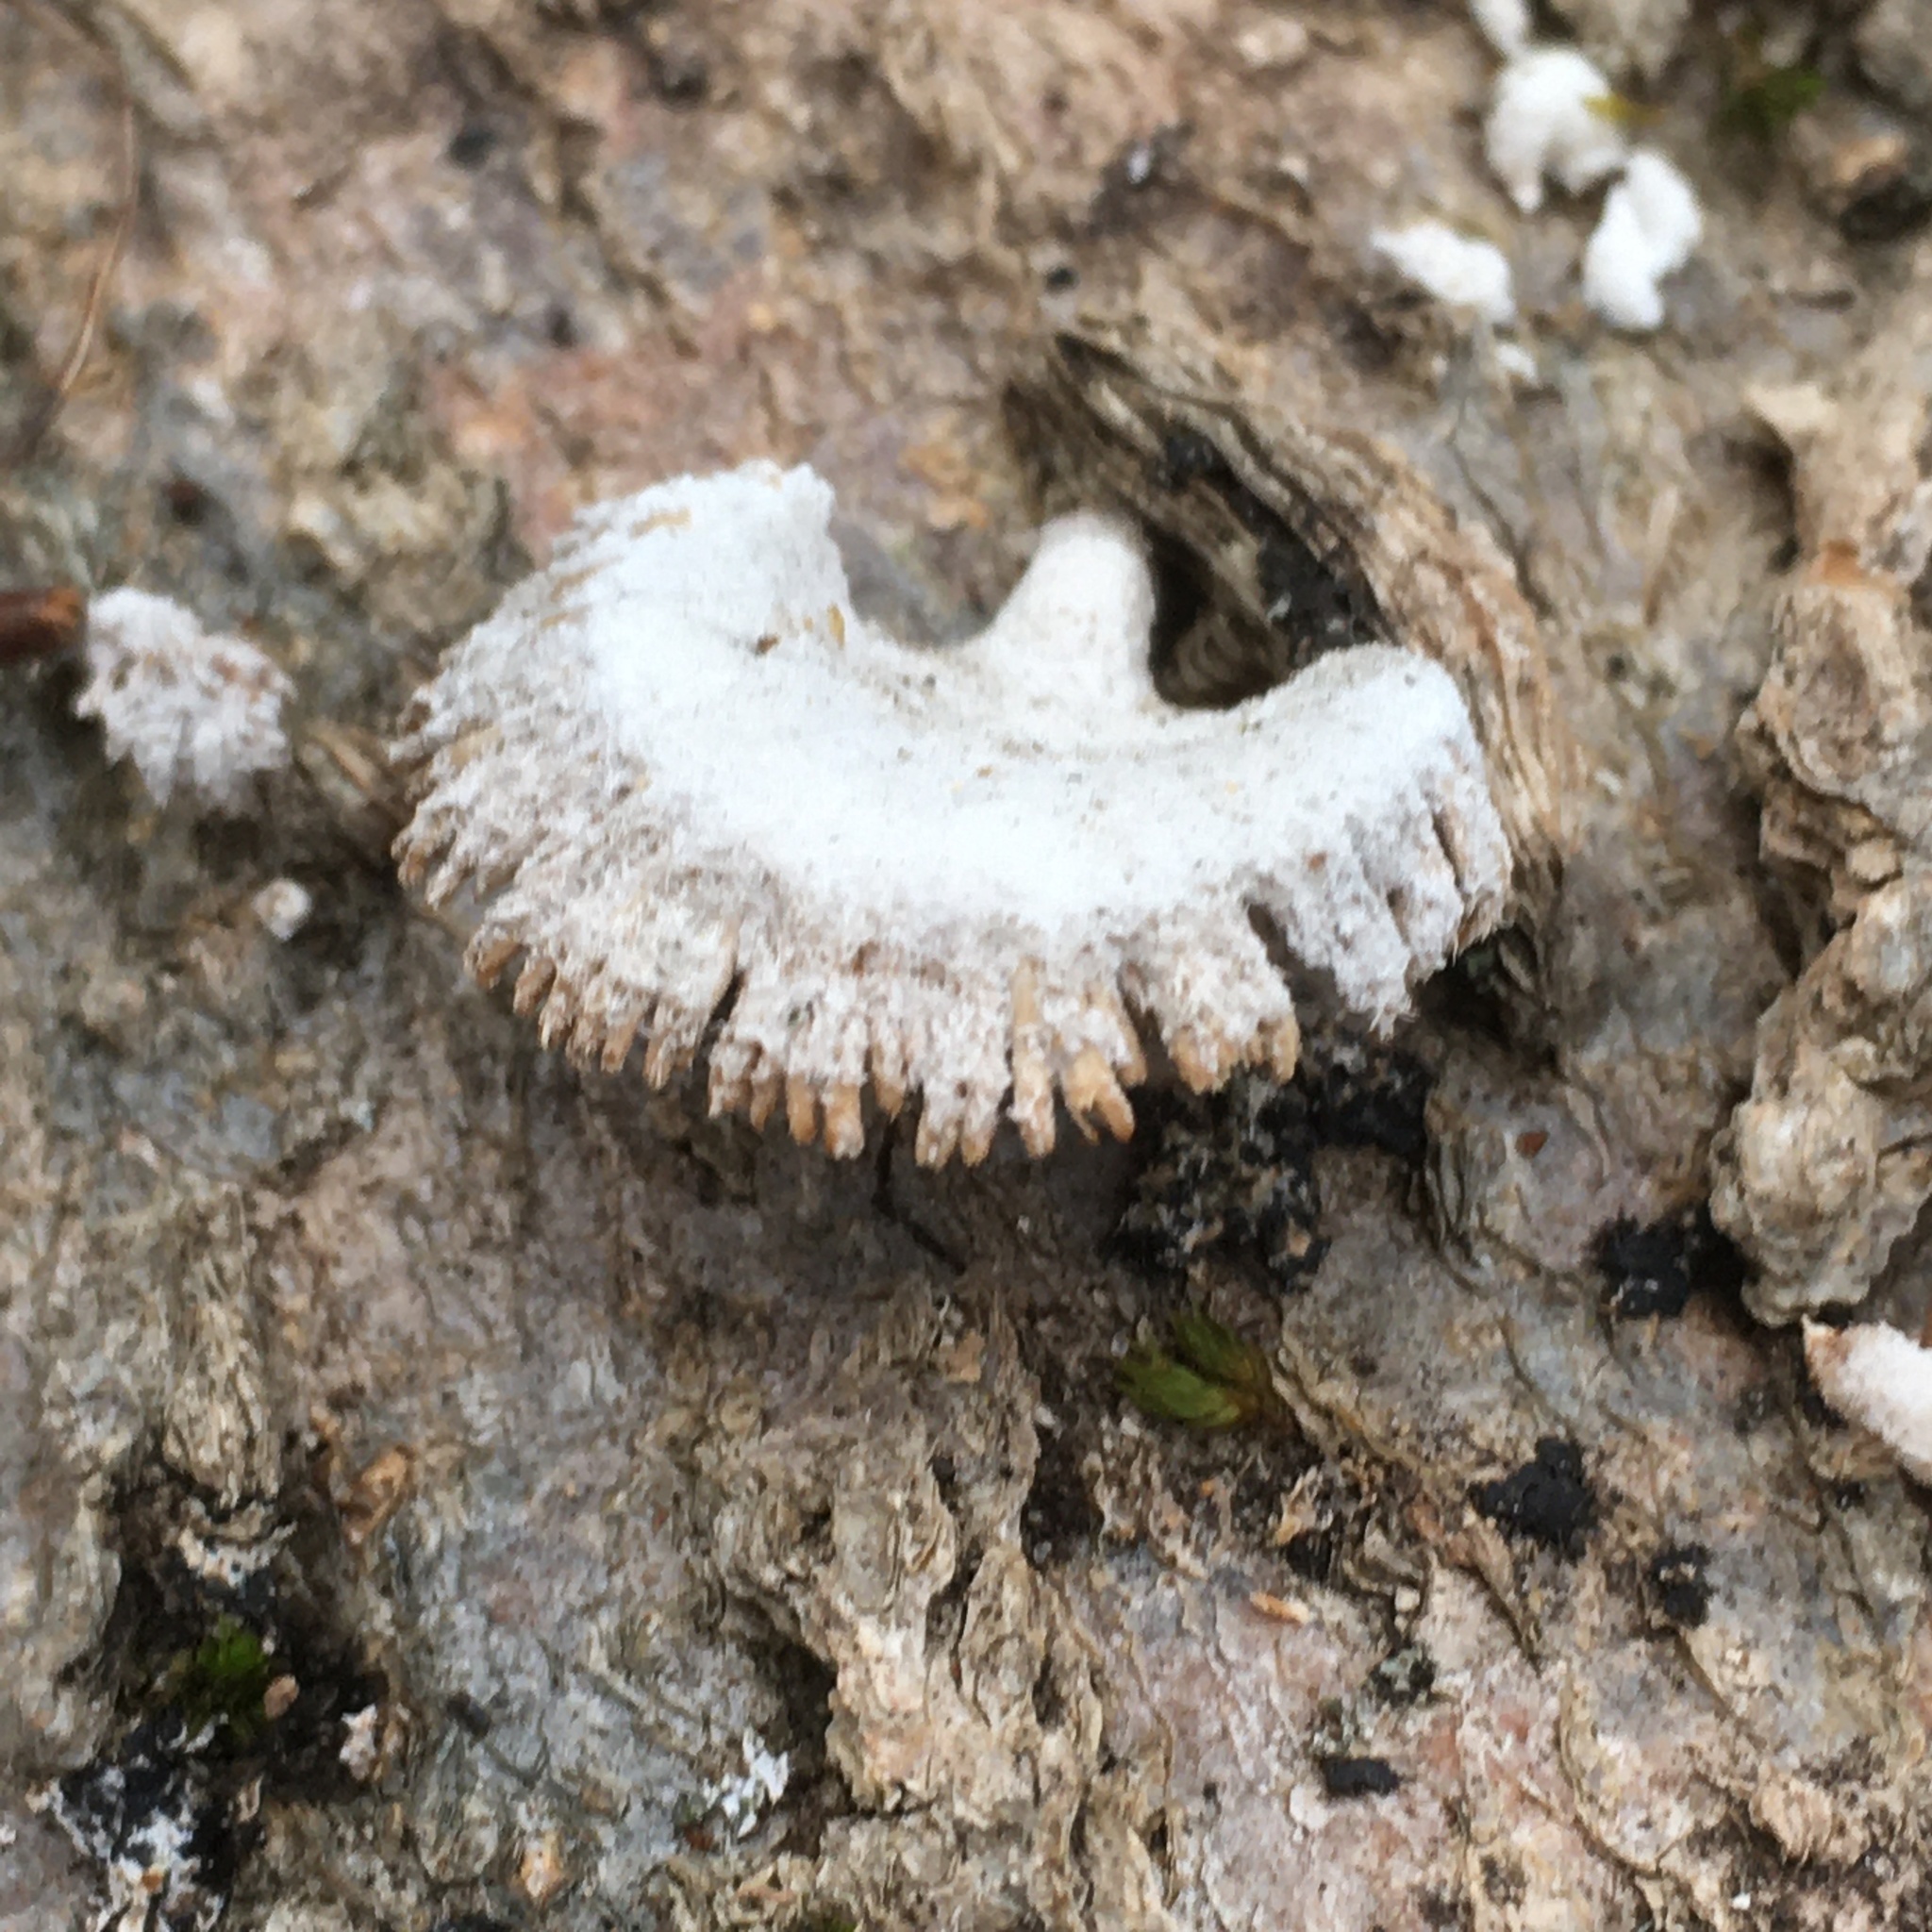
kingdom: Fungi
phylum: Basidiomycota
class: Agaricomycetes
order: Agaricales
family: Schizophyllaceae
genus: Schizophyllum
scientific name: Schizophyllum commune
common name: Common porecrust
